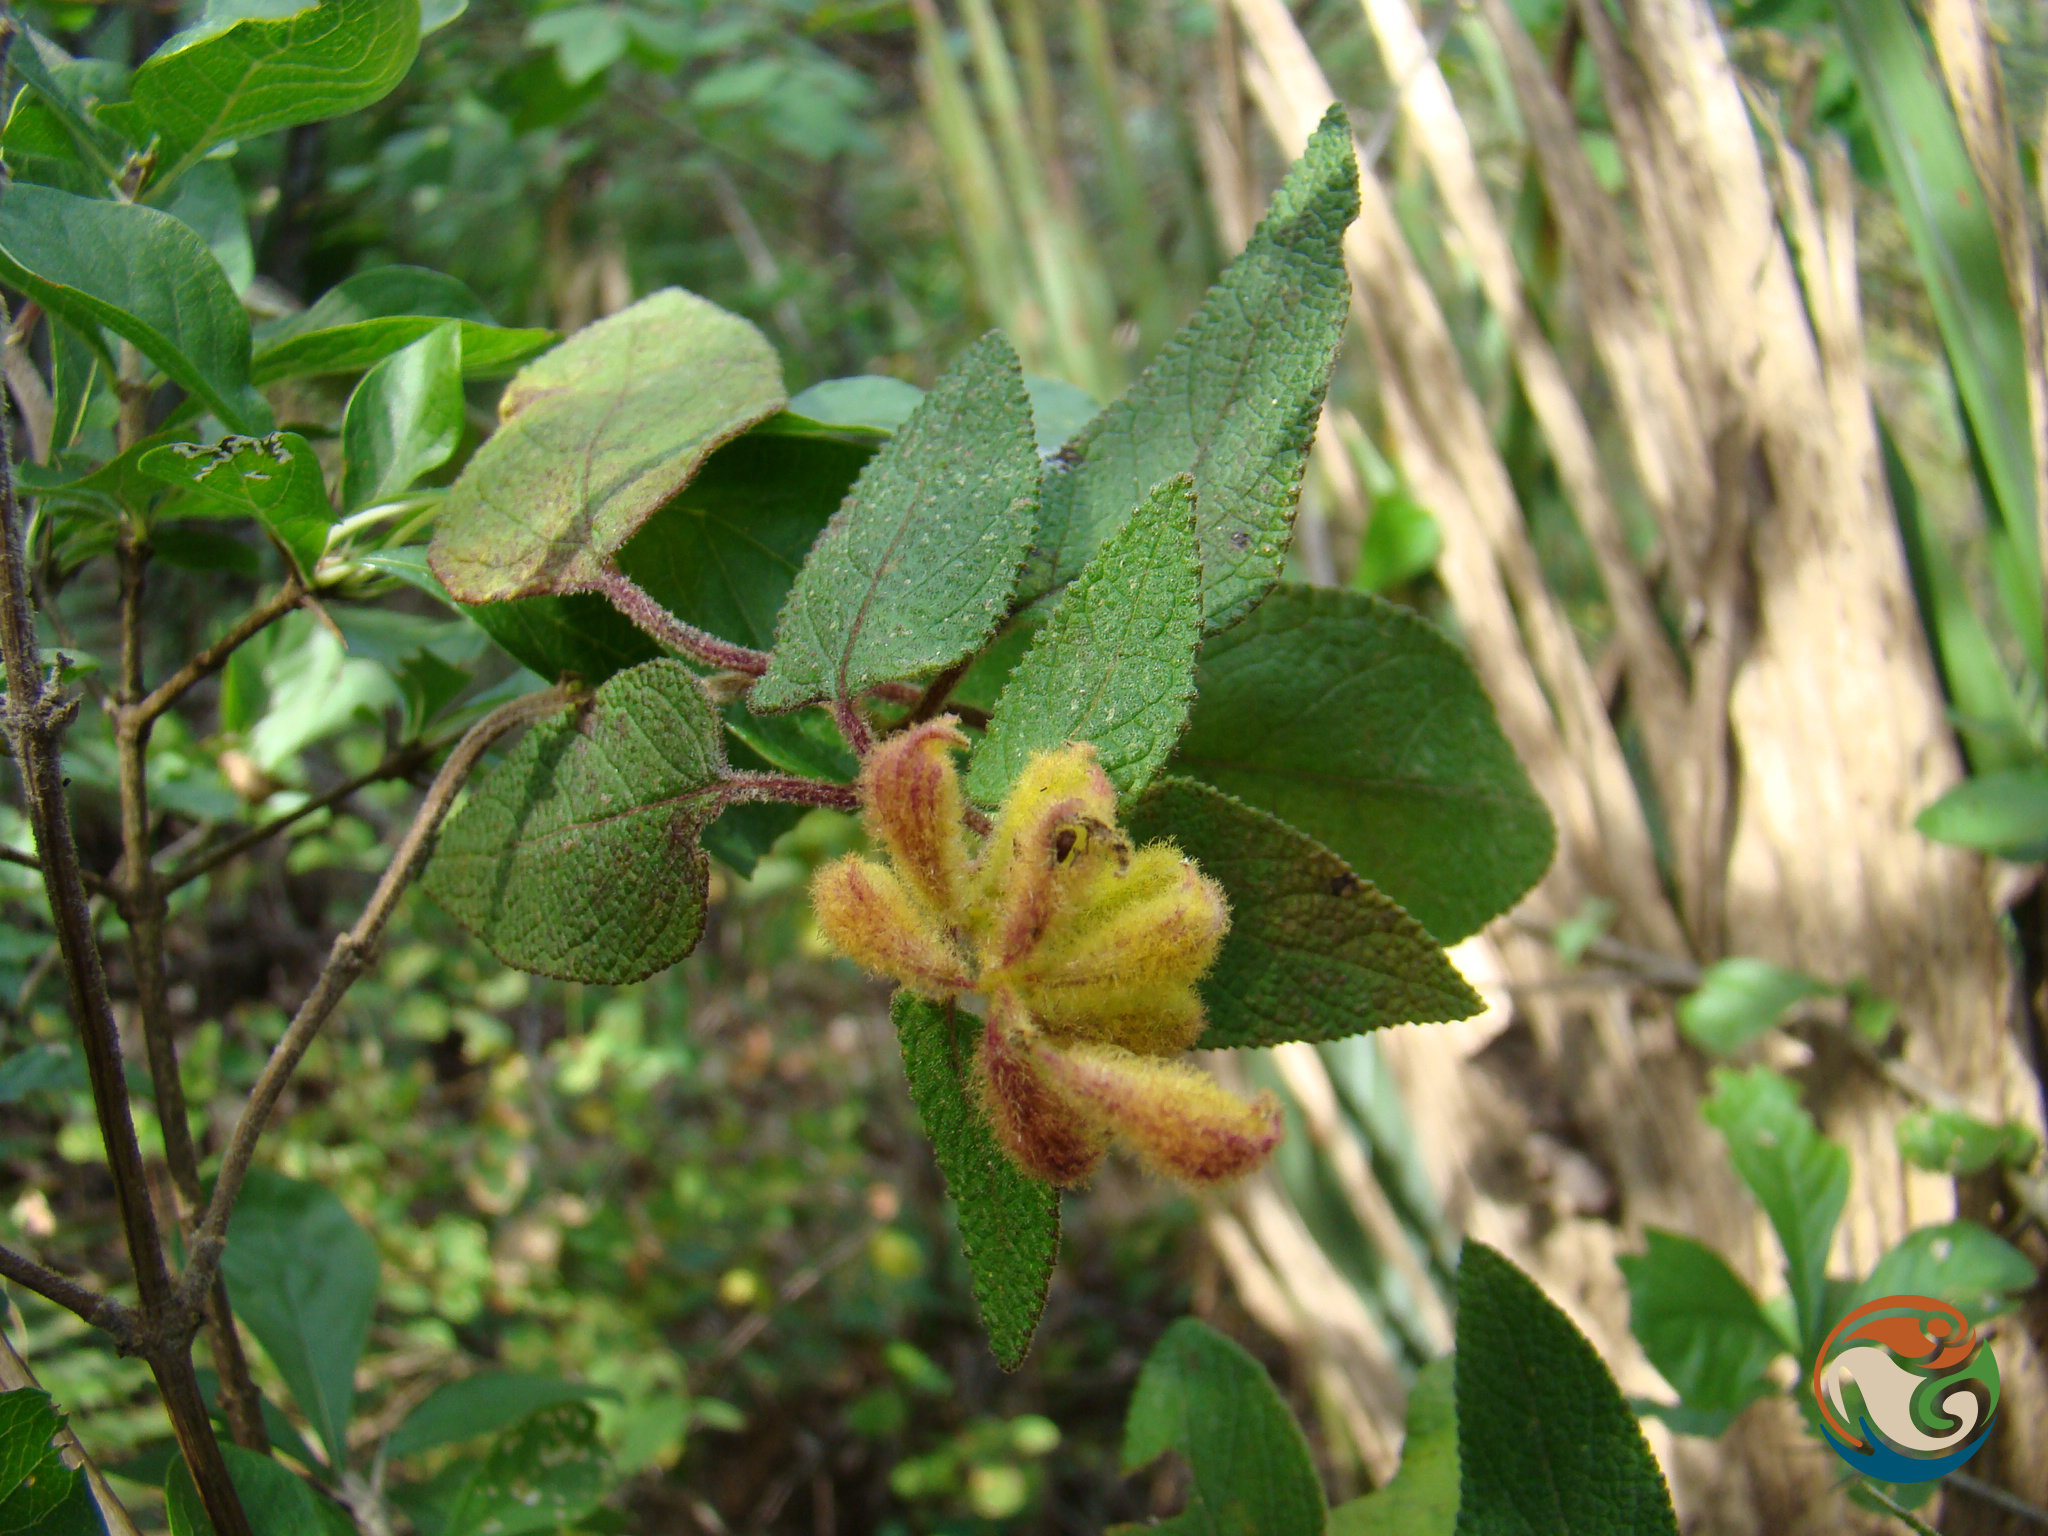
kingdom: Plantae
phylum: Tracheophyta
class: Magnoliopsida
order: Lamiales
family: Lamiaceae
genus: Salvia
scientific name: Salvia lasiantha
